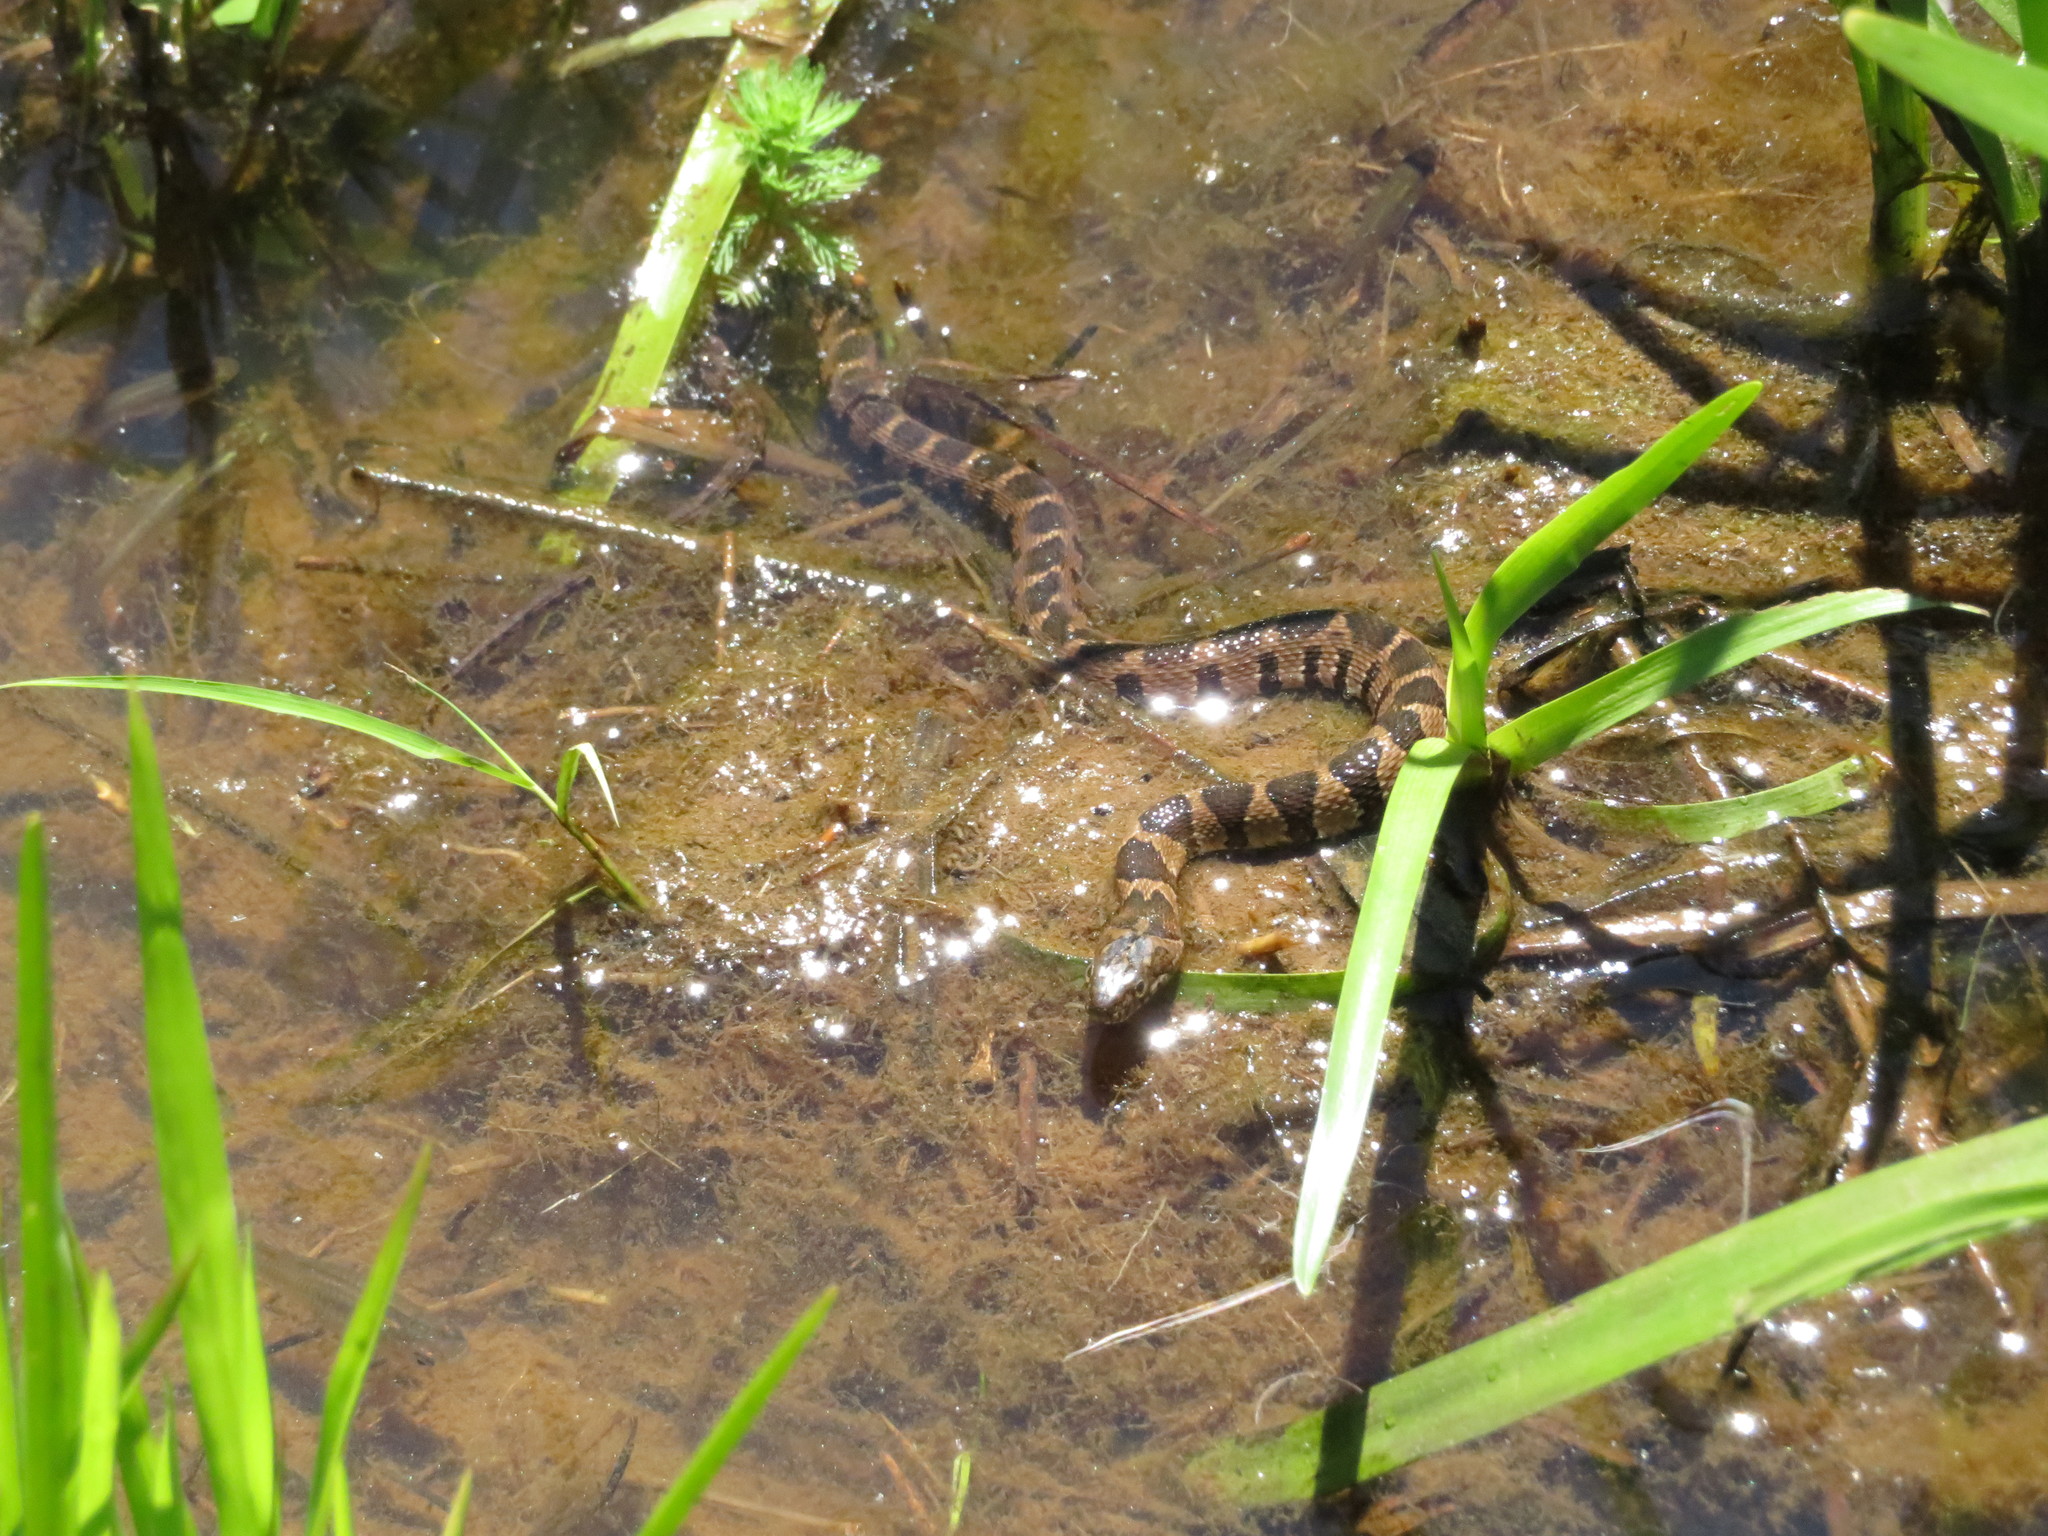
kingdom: Animalia
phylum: Chordata
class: Squamata
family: Colubridae
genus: Nerodia
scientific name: Nerodia sipedon
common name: Northern water snake
